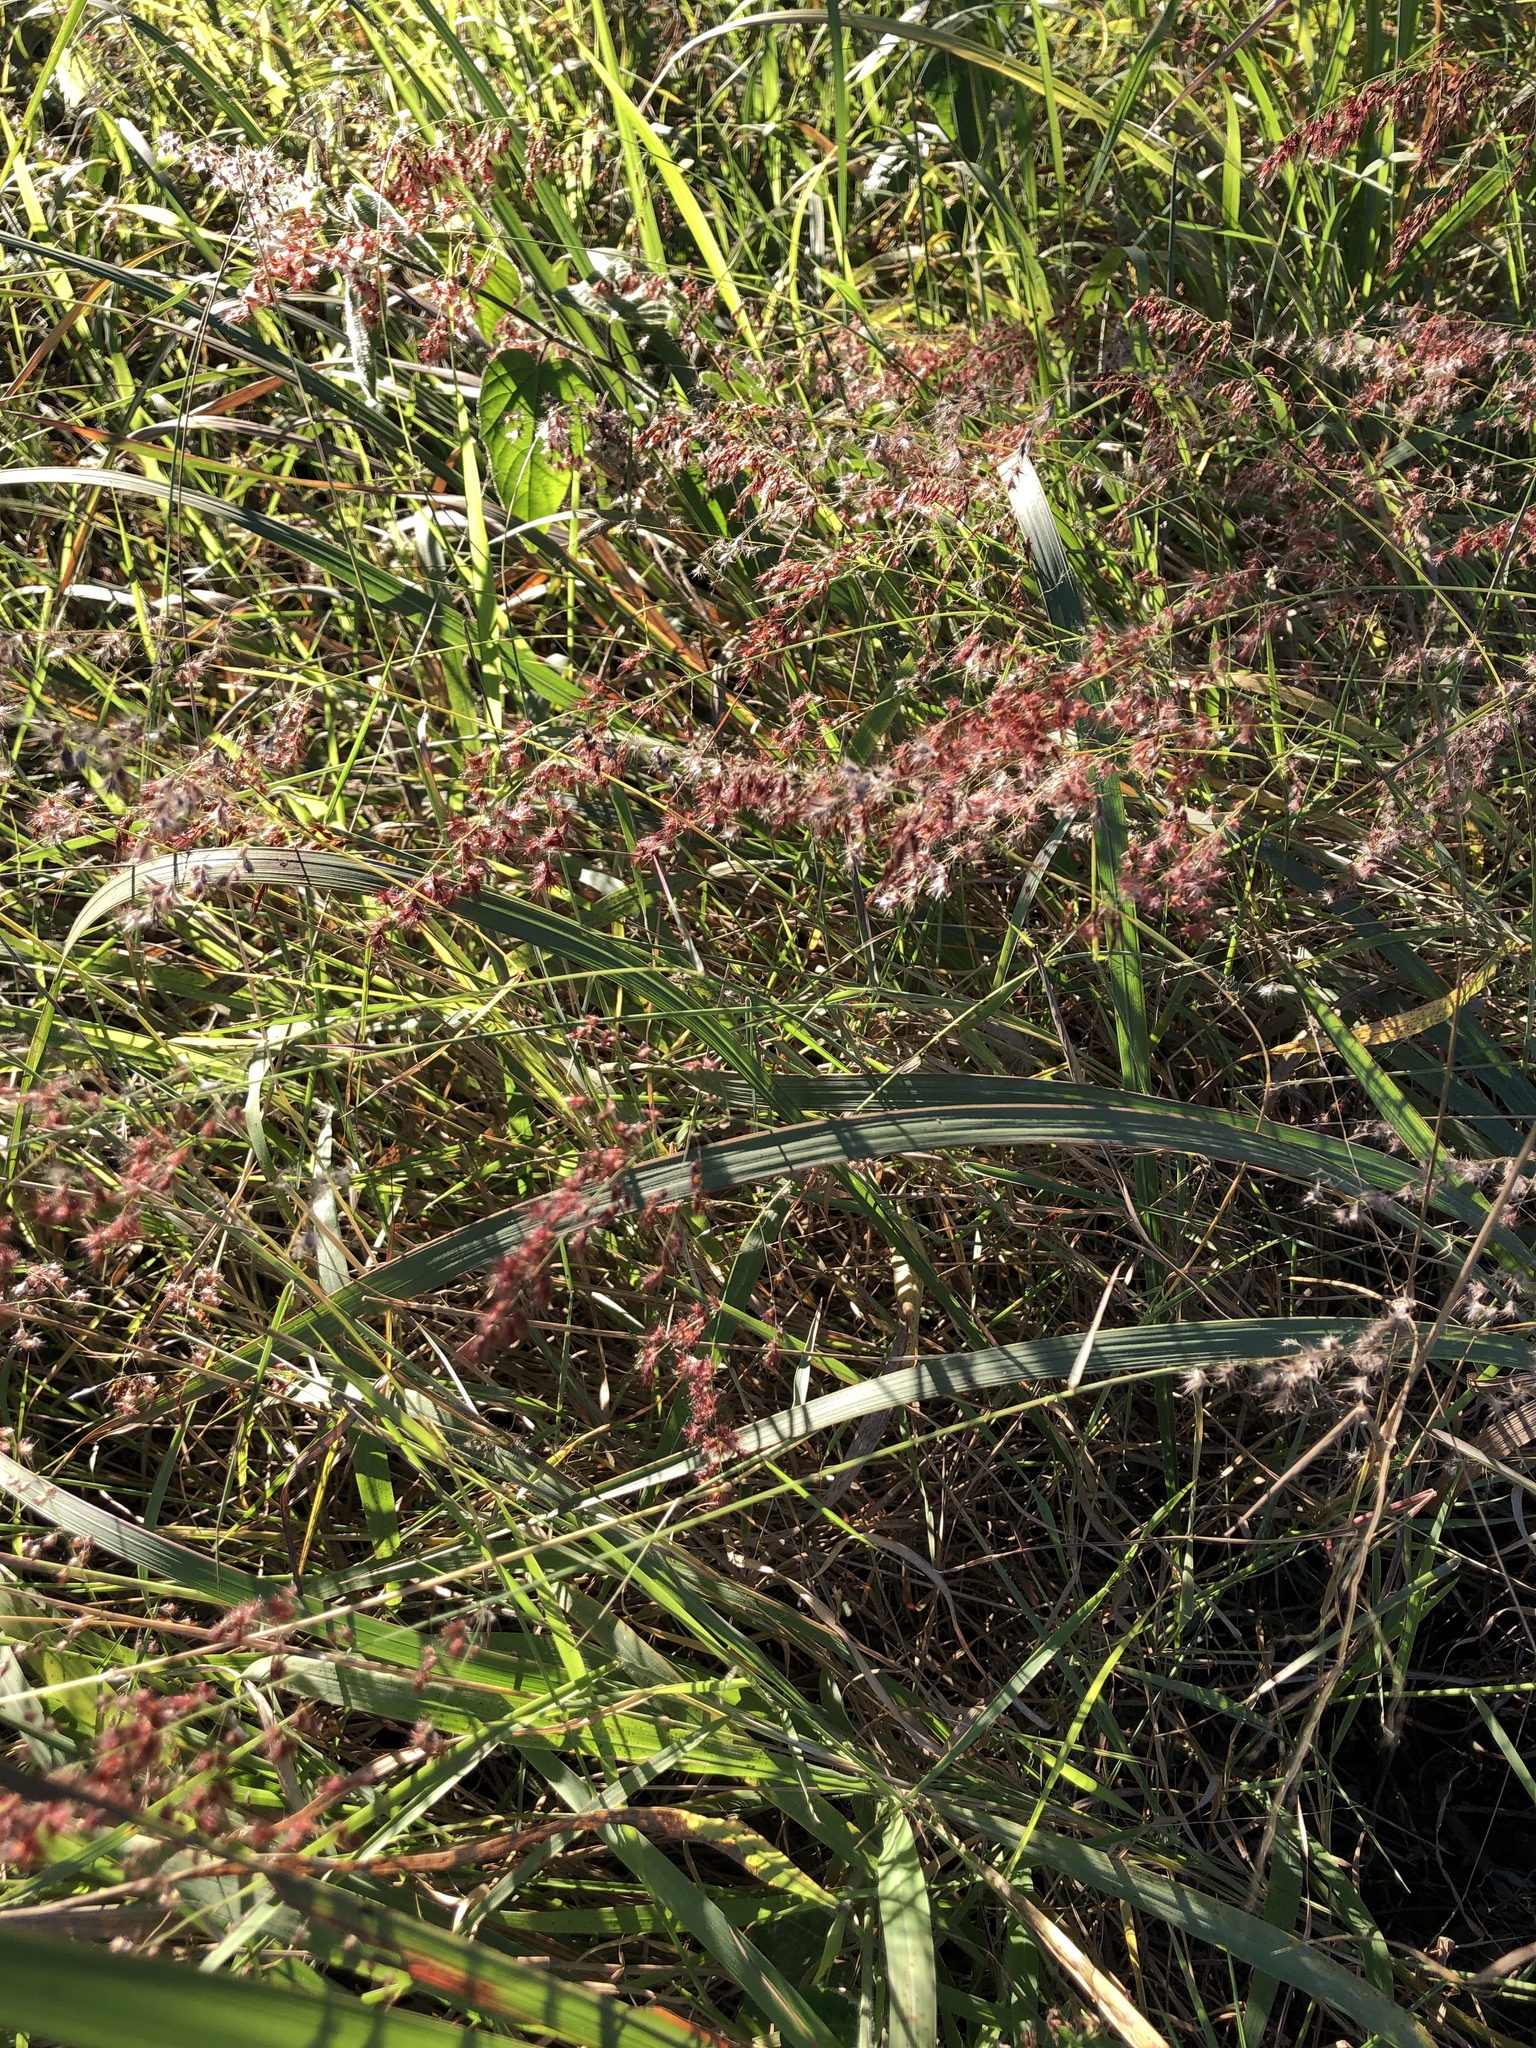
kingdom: Plantae
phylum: Tracheophyta
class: Liliopsida
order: Poales
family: Poaceae
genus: Melinis
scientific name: Melinis repens
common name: Rose natal grass
